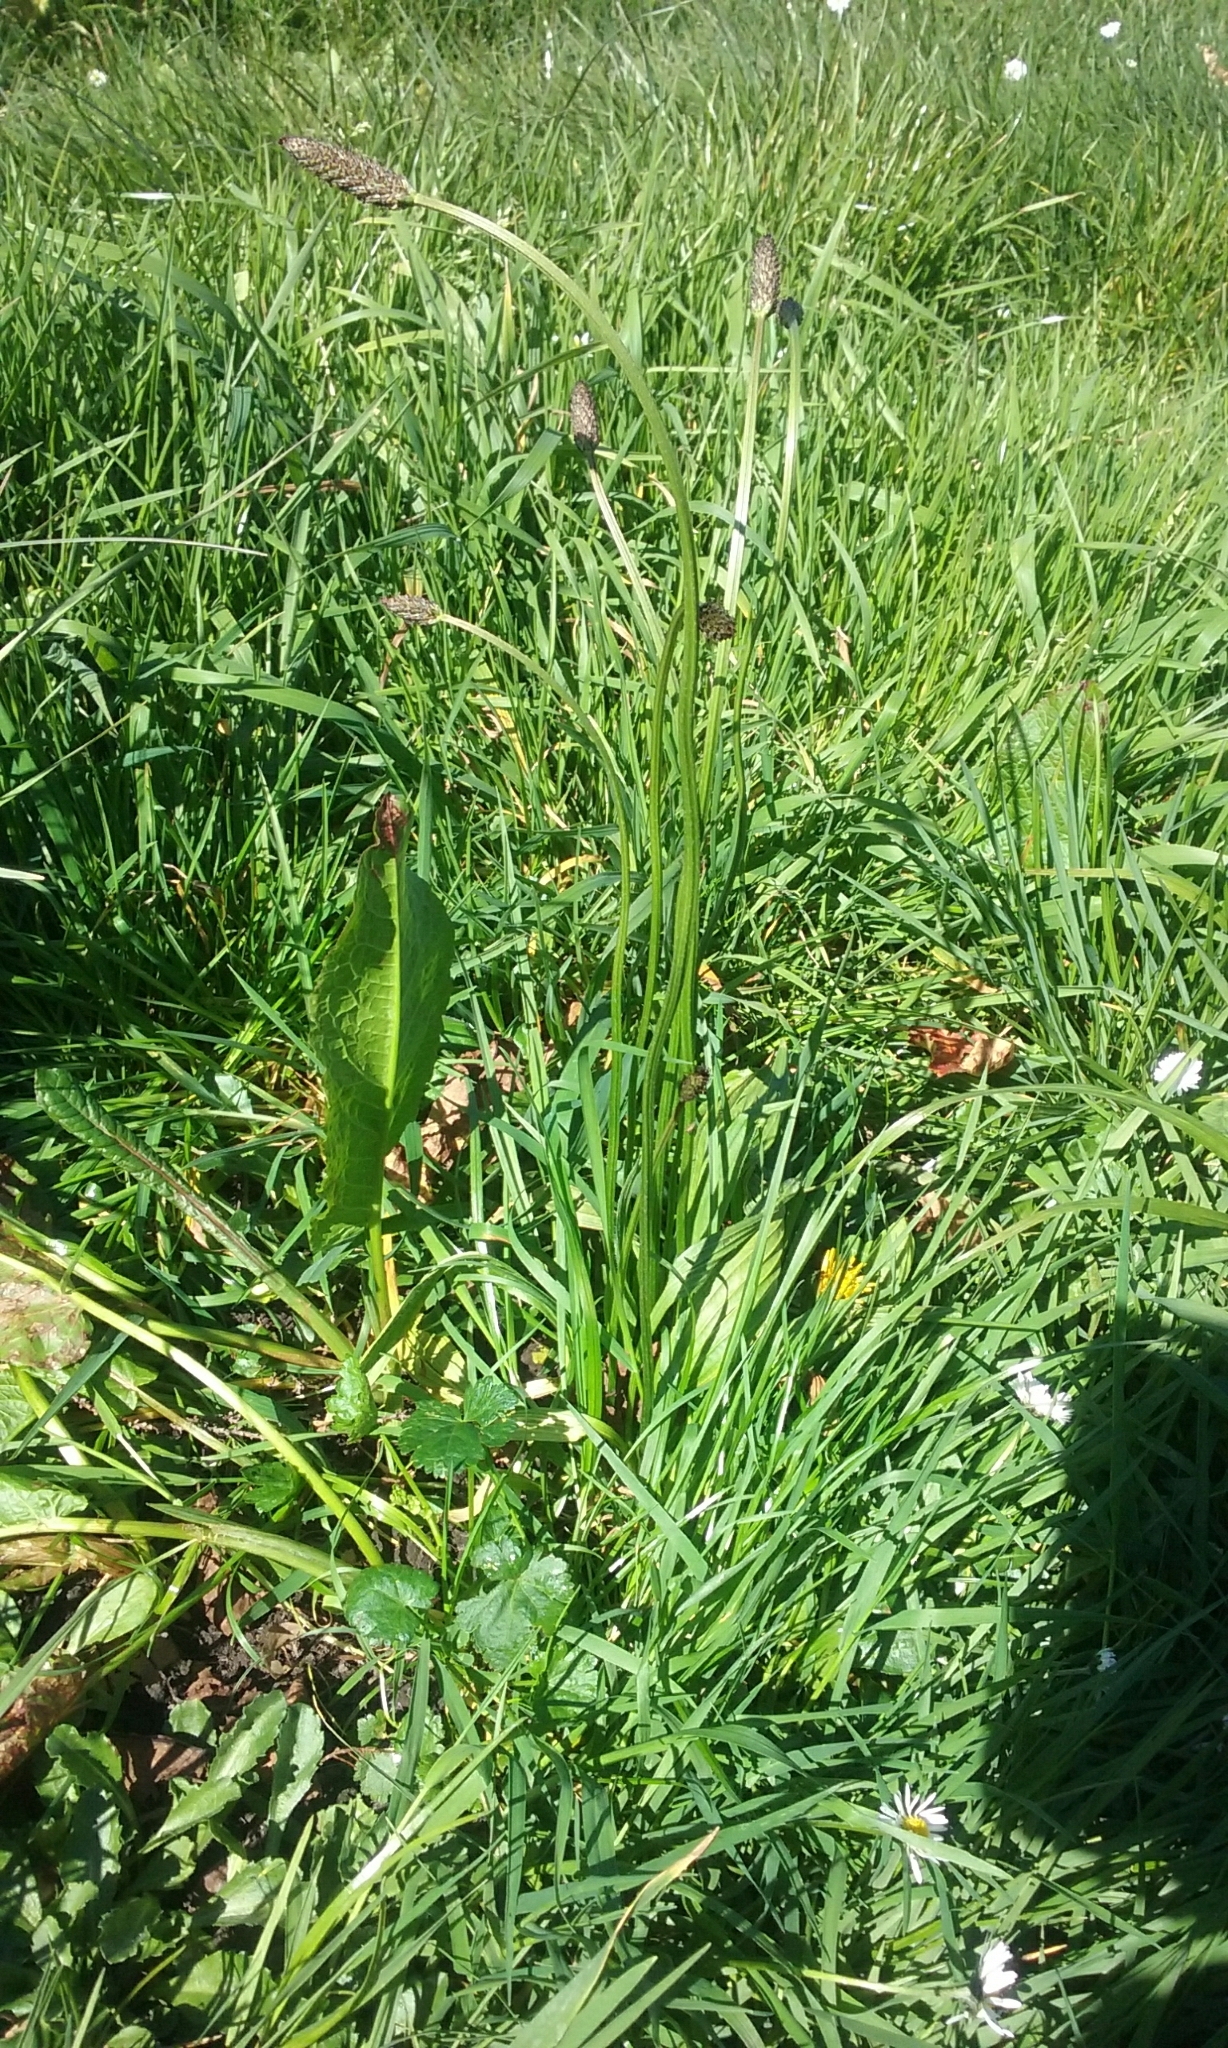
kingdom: Plantae
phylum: Tracheophyta
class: Magnoliopsida
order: Lamiales
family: Plantaginaceae
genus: Plantago
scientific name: Plantago lanceolata
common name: Ribwort plantain
